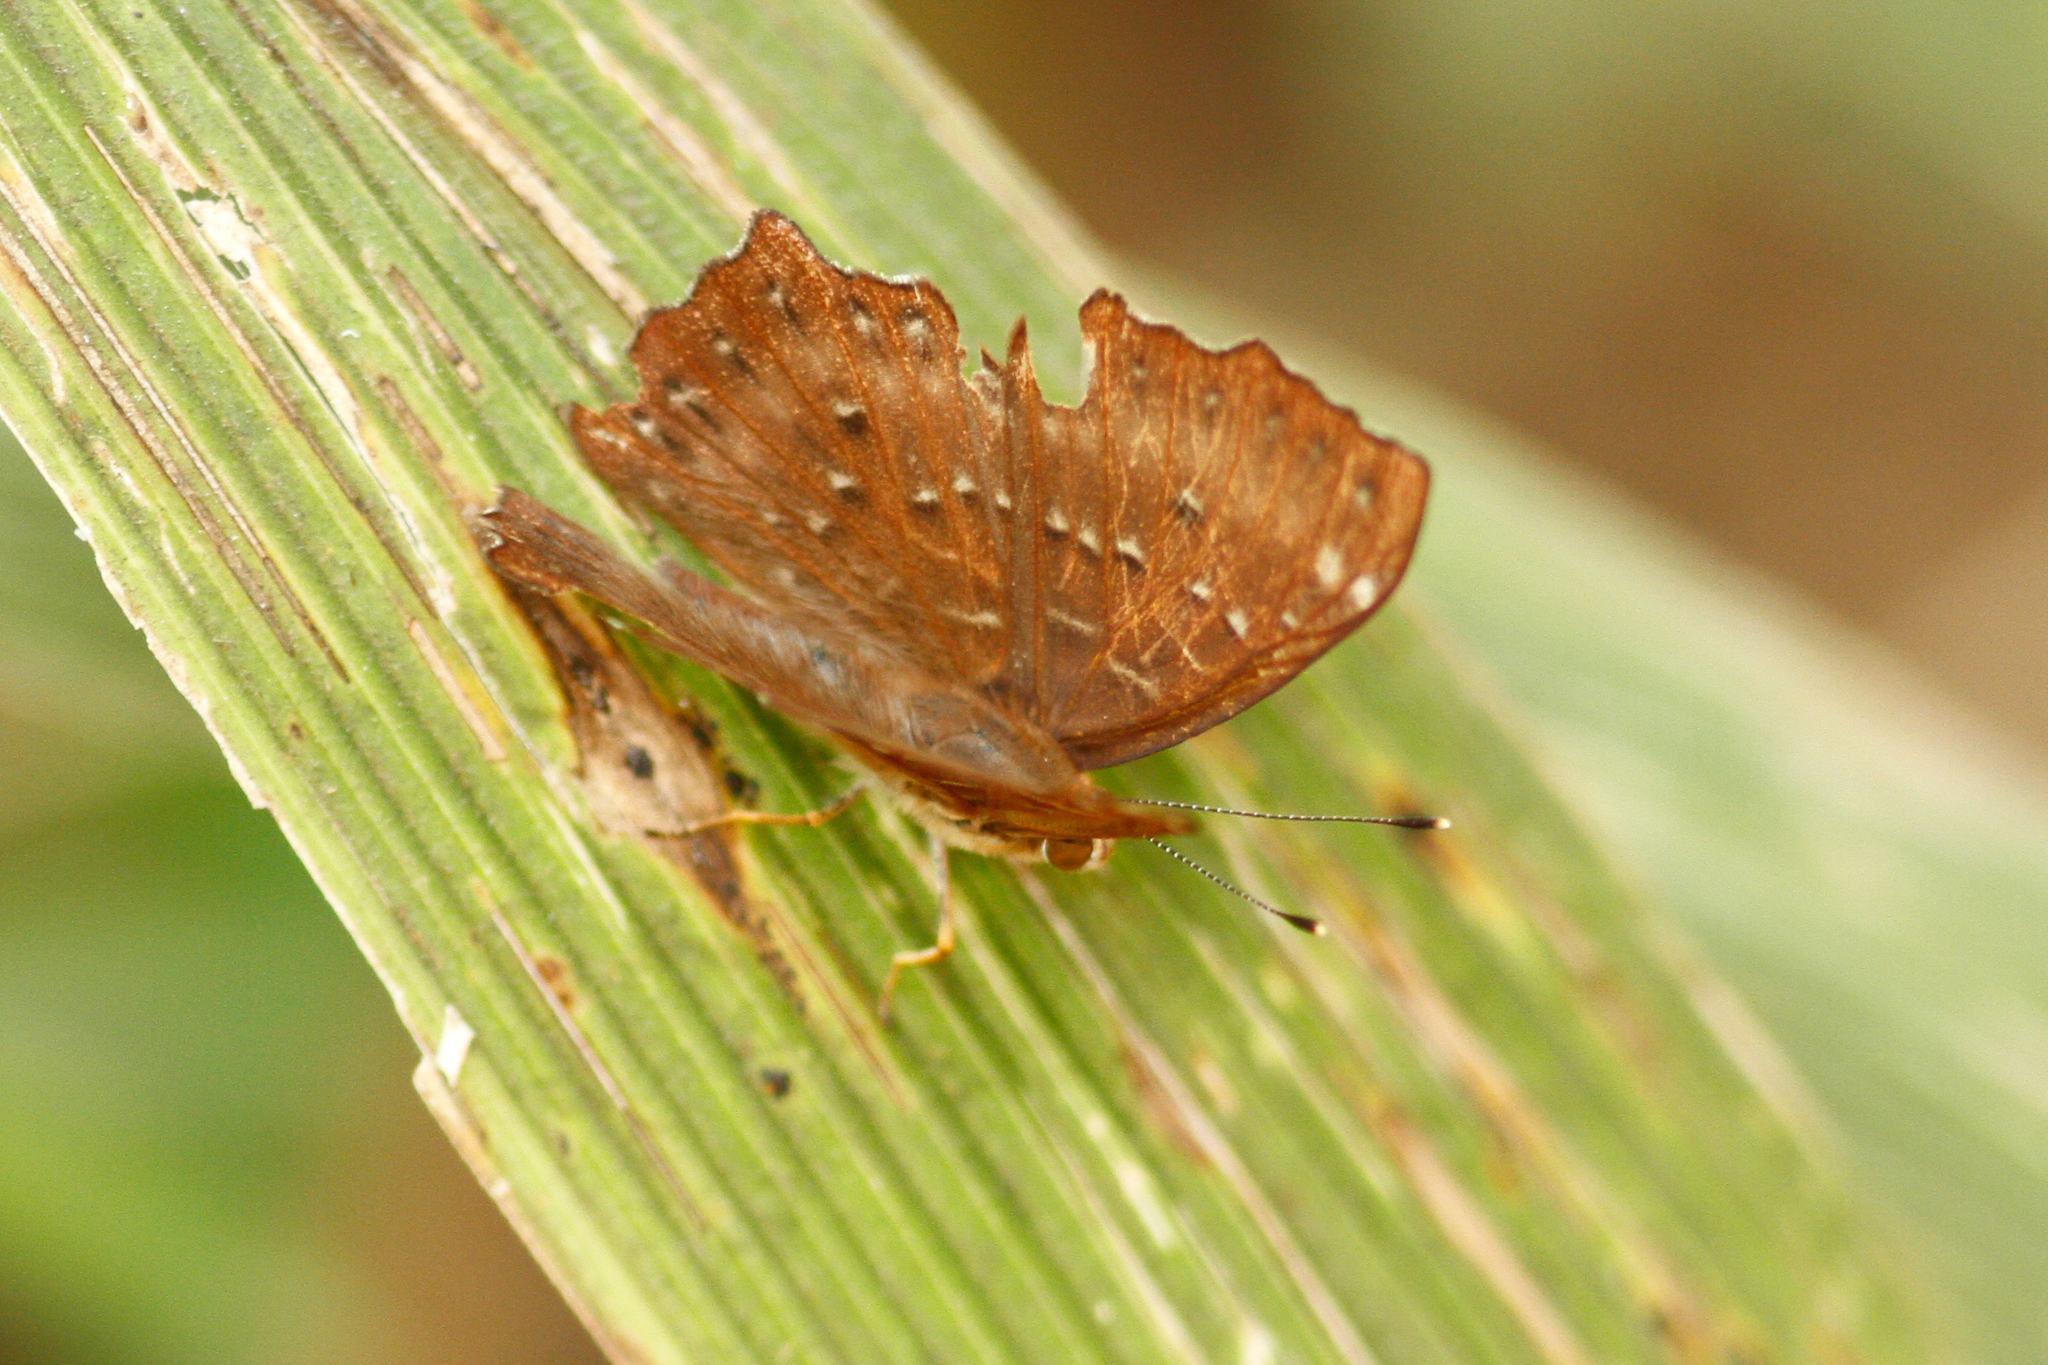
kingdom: Animalia
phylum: Arthropoda
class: Insecta
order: Lepidoptera
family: Riodinidae
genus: Zemeros
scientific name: Zemeros flegyas
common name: Punchinello
